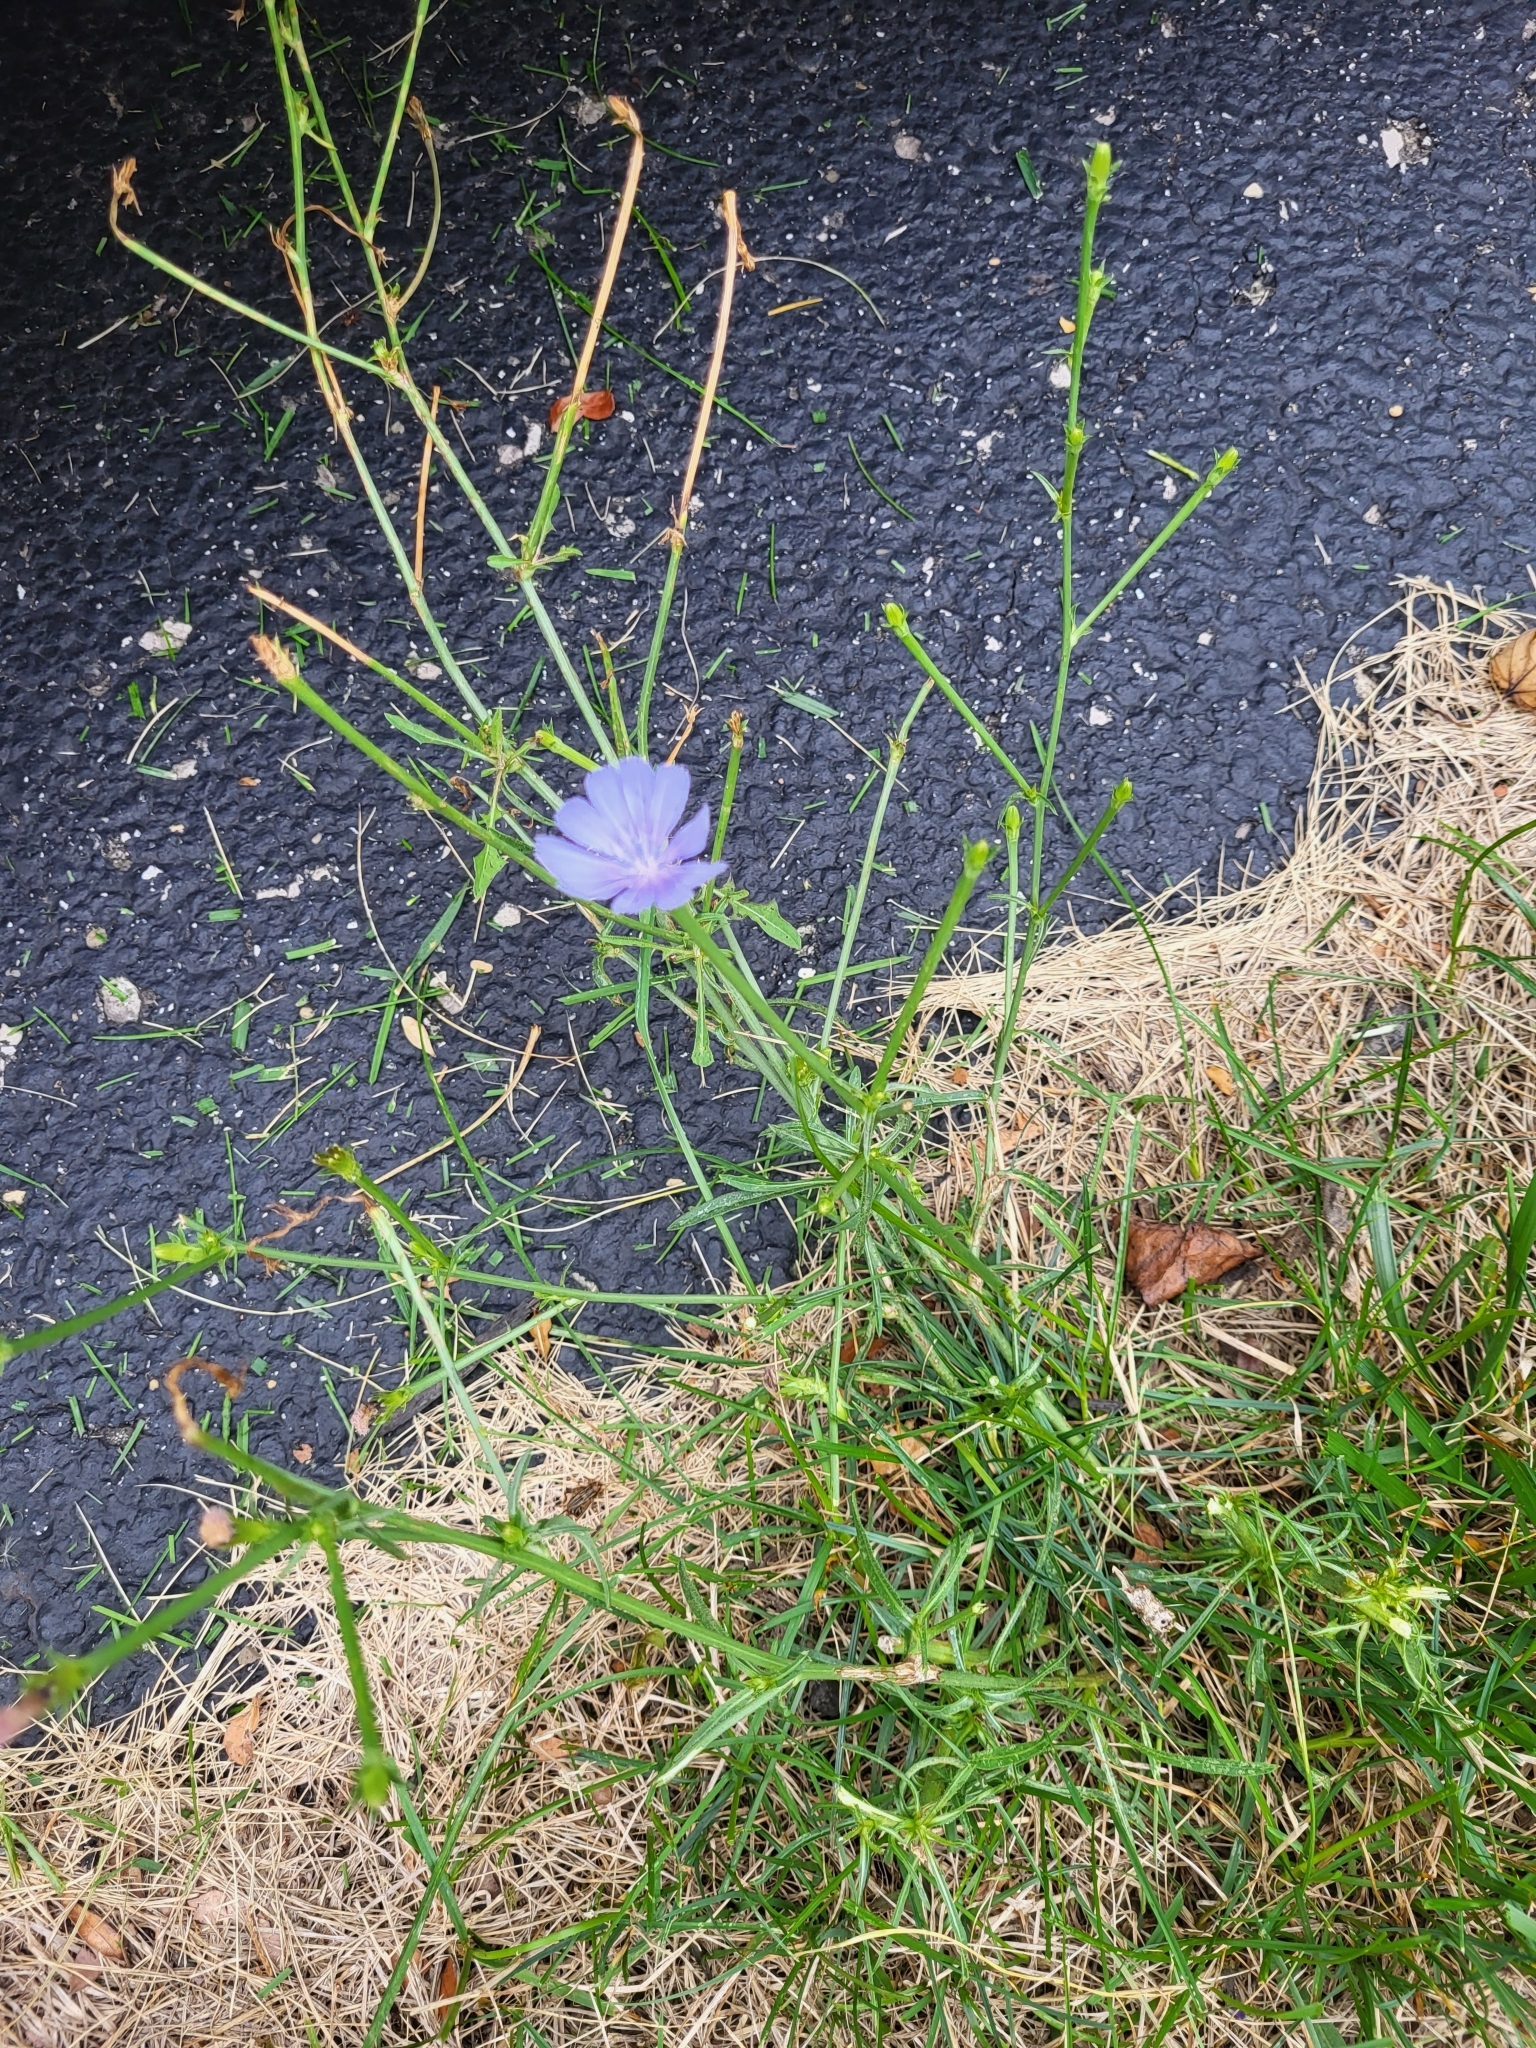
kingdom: Plantae
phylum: Tracheophyta
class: Magnoliopsida
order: Asterales
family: Asteraceae
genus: Cichorium
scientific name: Cichorium intybus
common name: Chicory
